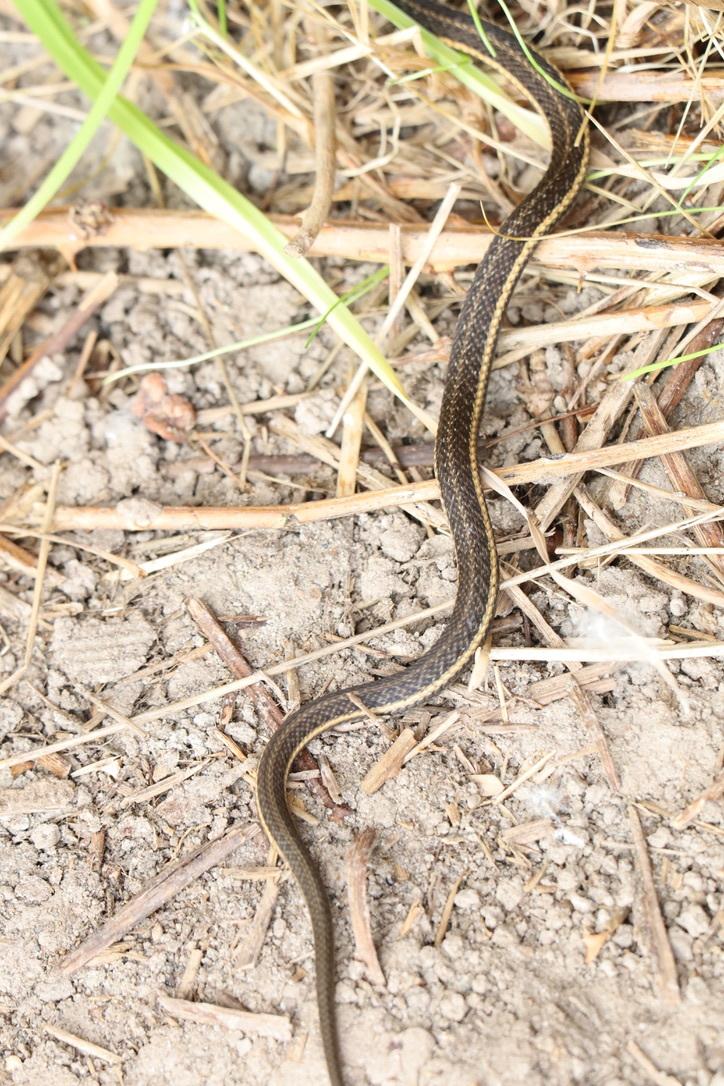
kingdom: Animalia
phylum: Chordata
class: Squamata
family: Colubridae
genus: Thamnophis
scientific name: Thamnophis ordinoides
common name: Northwestern garter snake
